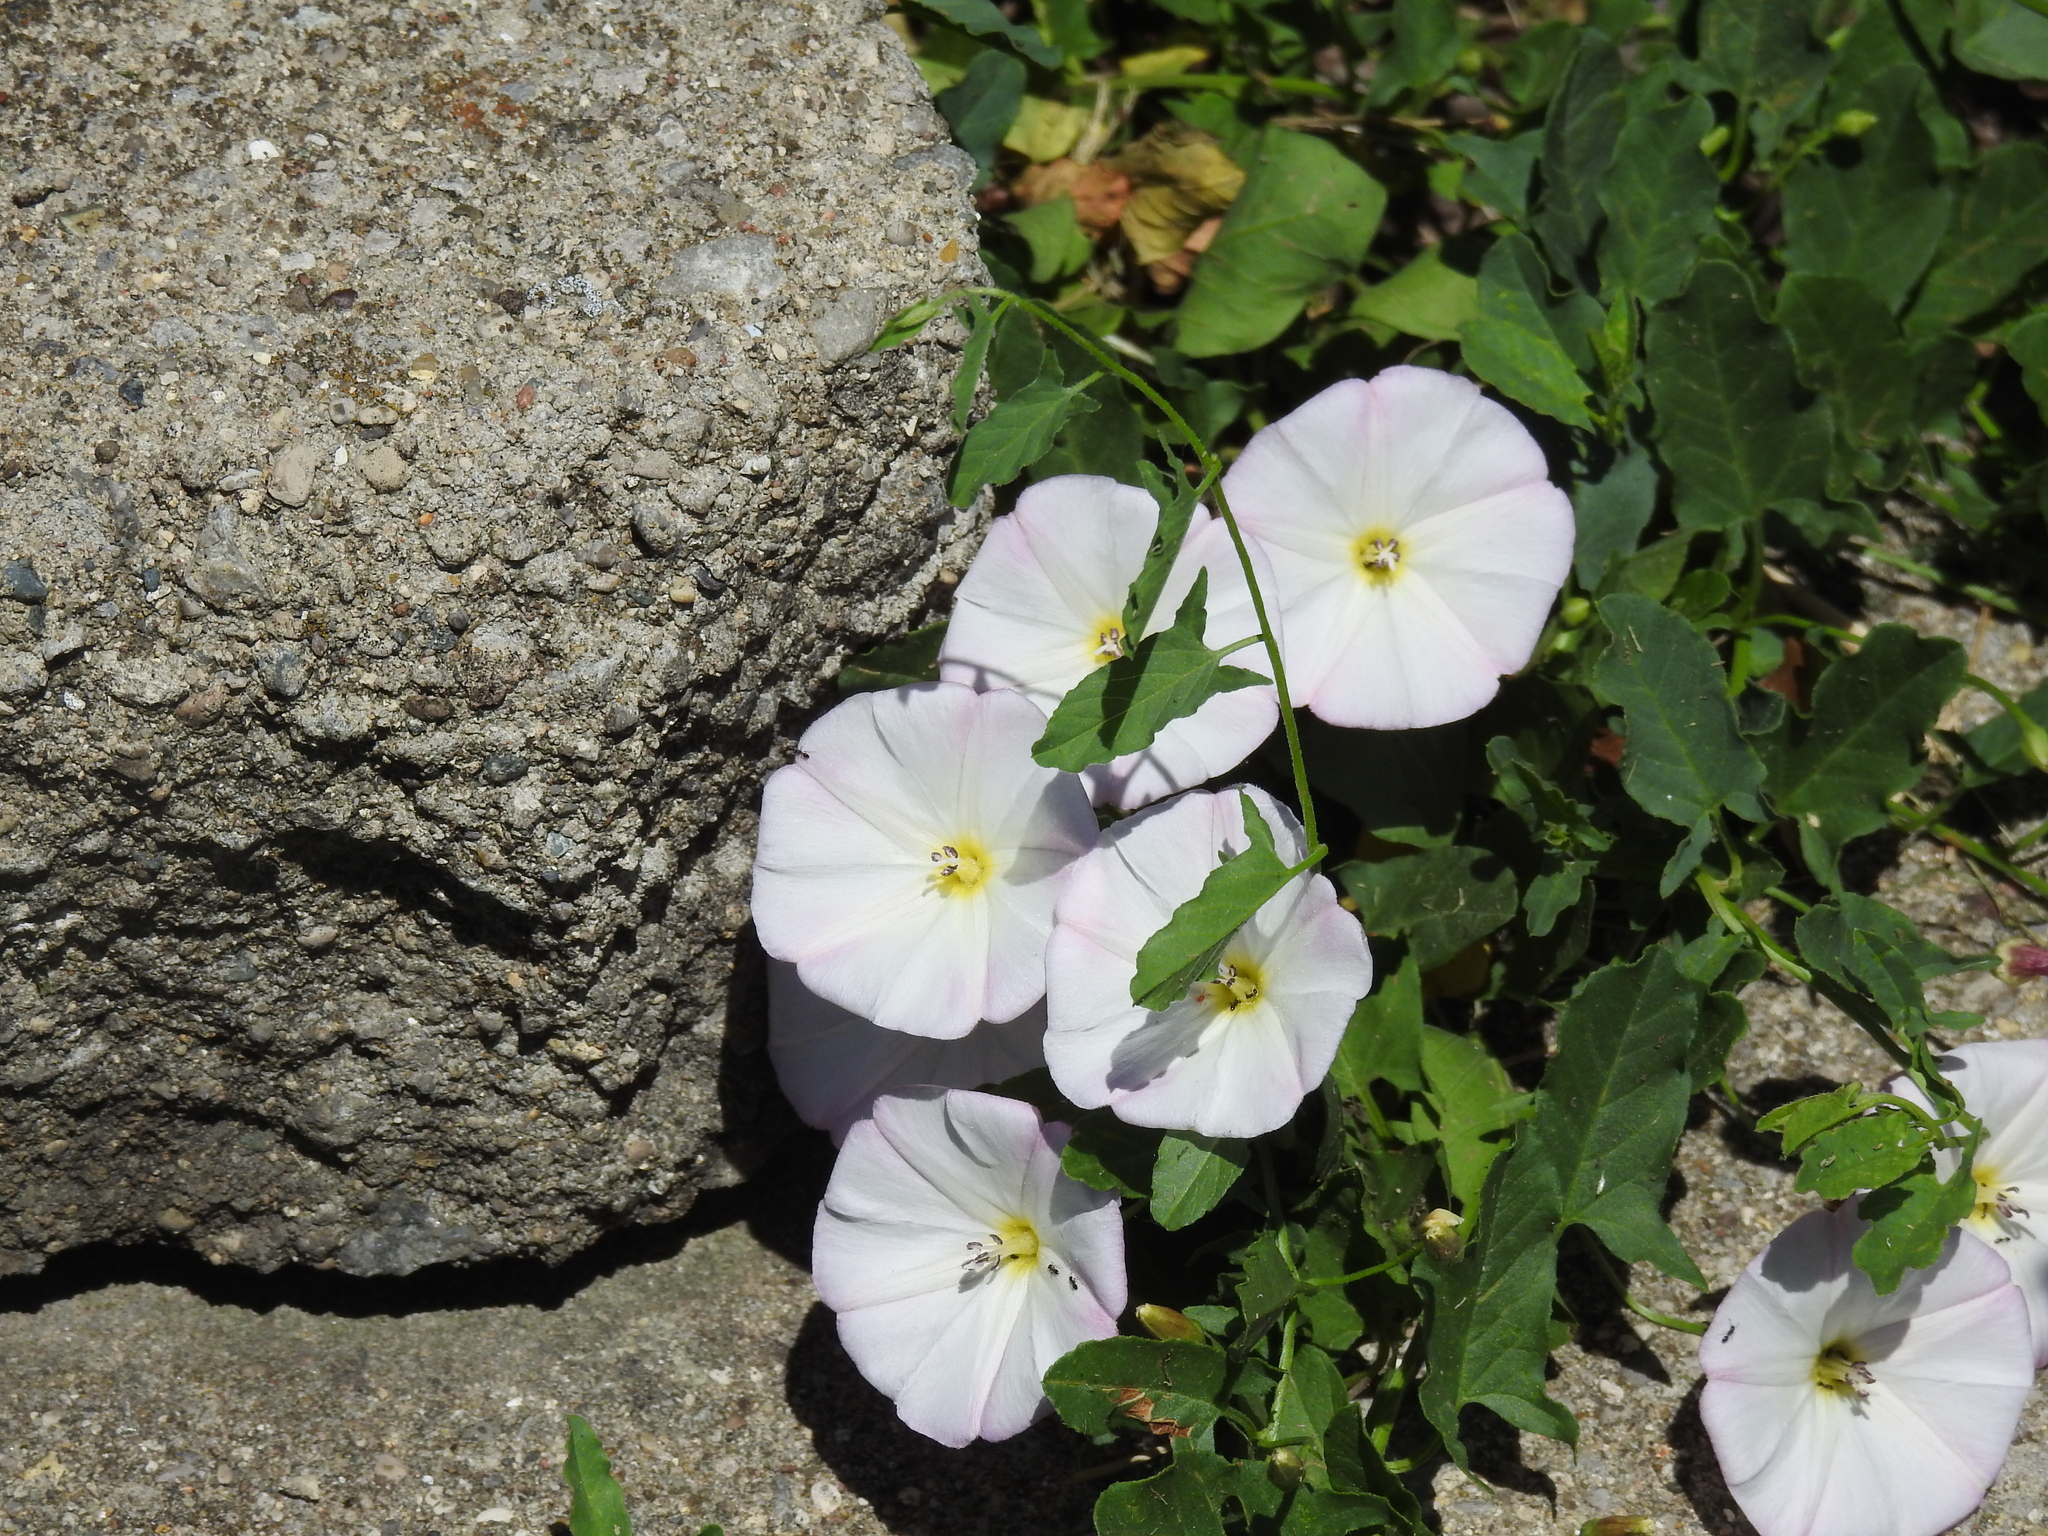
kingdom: Plantae
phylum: Tracheophyta
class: Magnoliopsida
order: Solanales
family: Convolvulaceae
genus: Convolvulus
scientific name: Convolvulus arvensis
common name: Field bindweed
